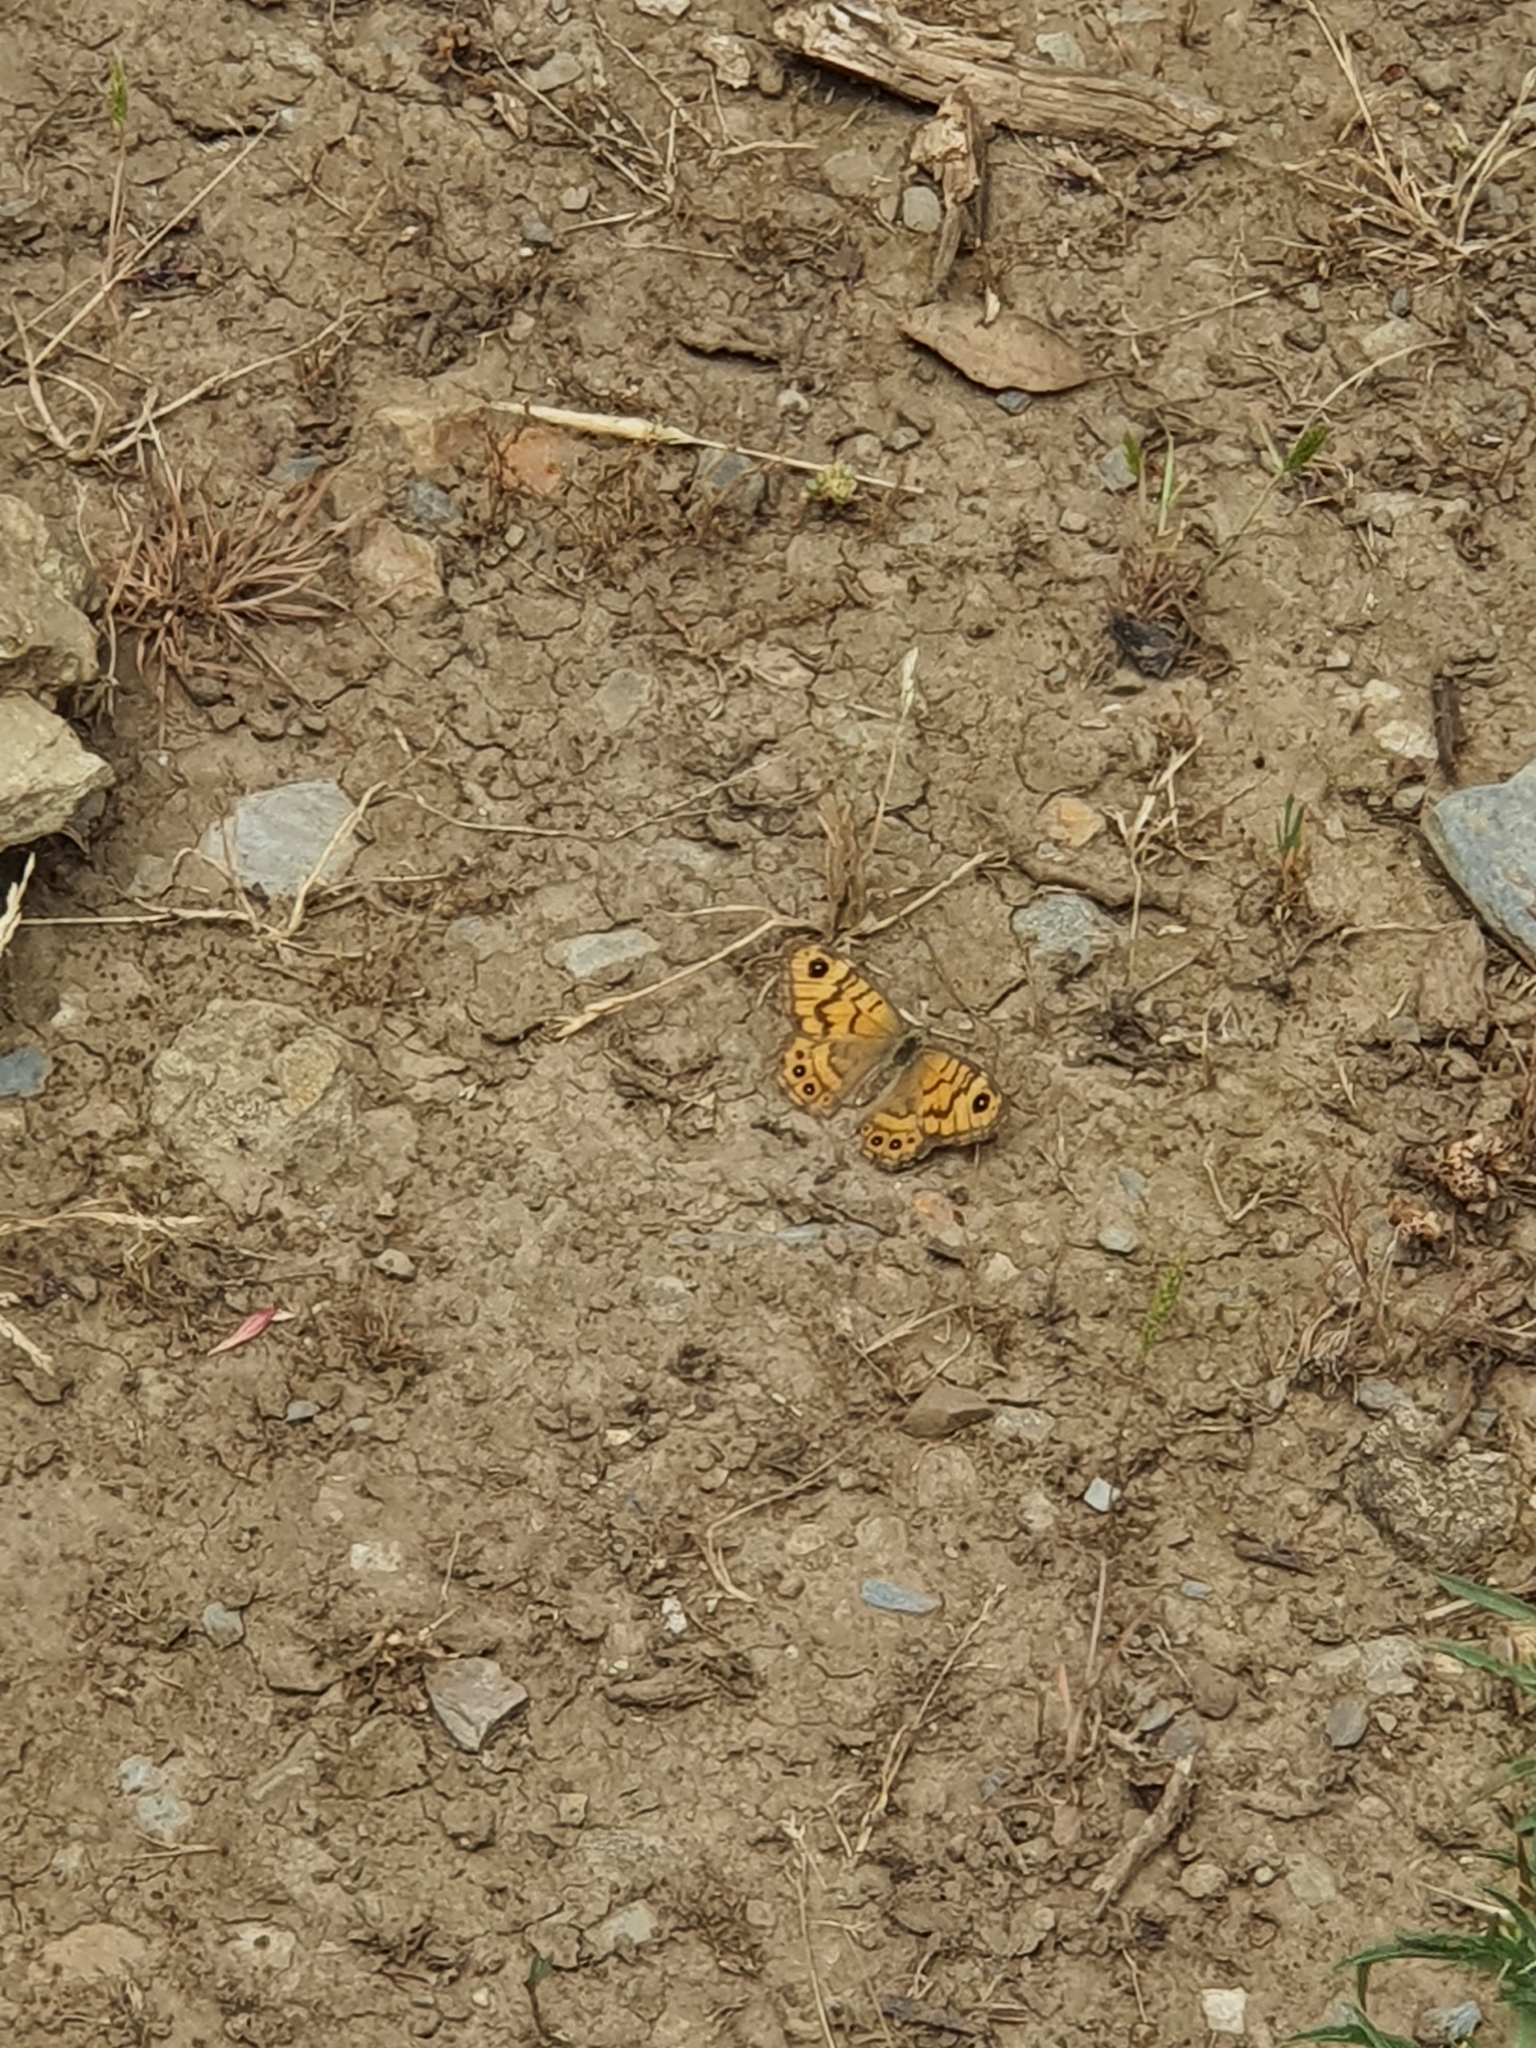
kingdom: Animalia
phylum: Arthropoda
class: Insecta
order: Lepidoptera
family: Nymphalidae
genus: Pararge
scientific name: Pararge Lasiommata megera
